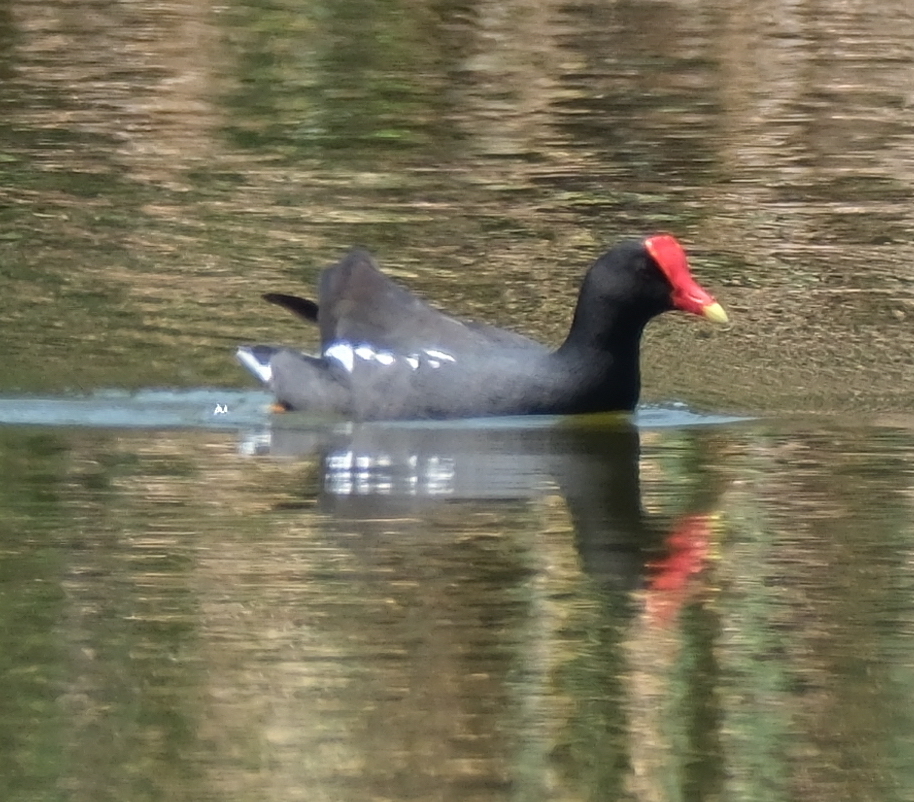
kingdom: Animalia
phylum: Chordata
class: Aves
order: Gruiformes
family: Rallidae
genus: Gallinula
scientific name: Gallinula chloropus
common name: Common moorhen
